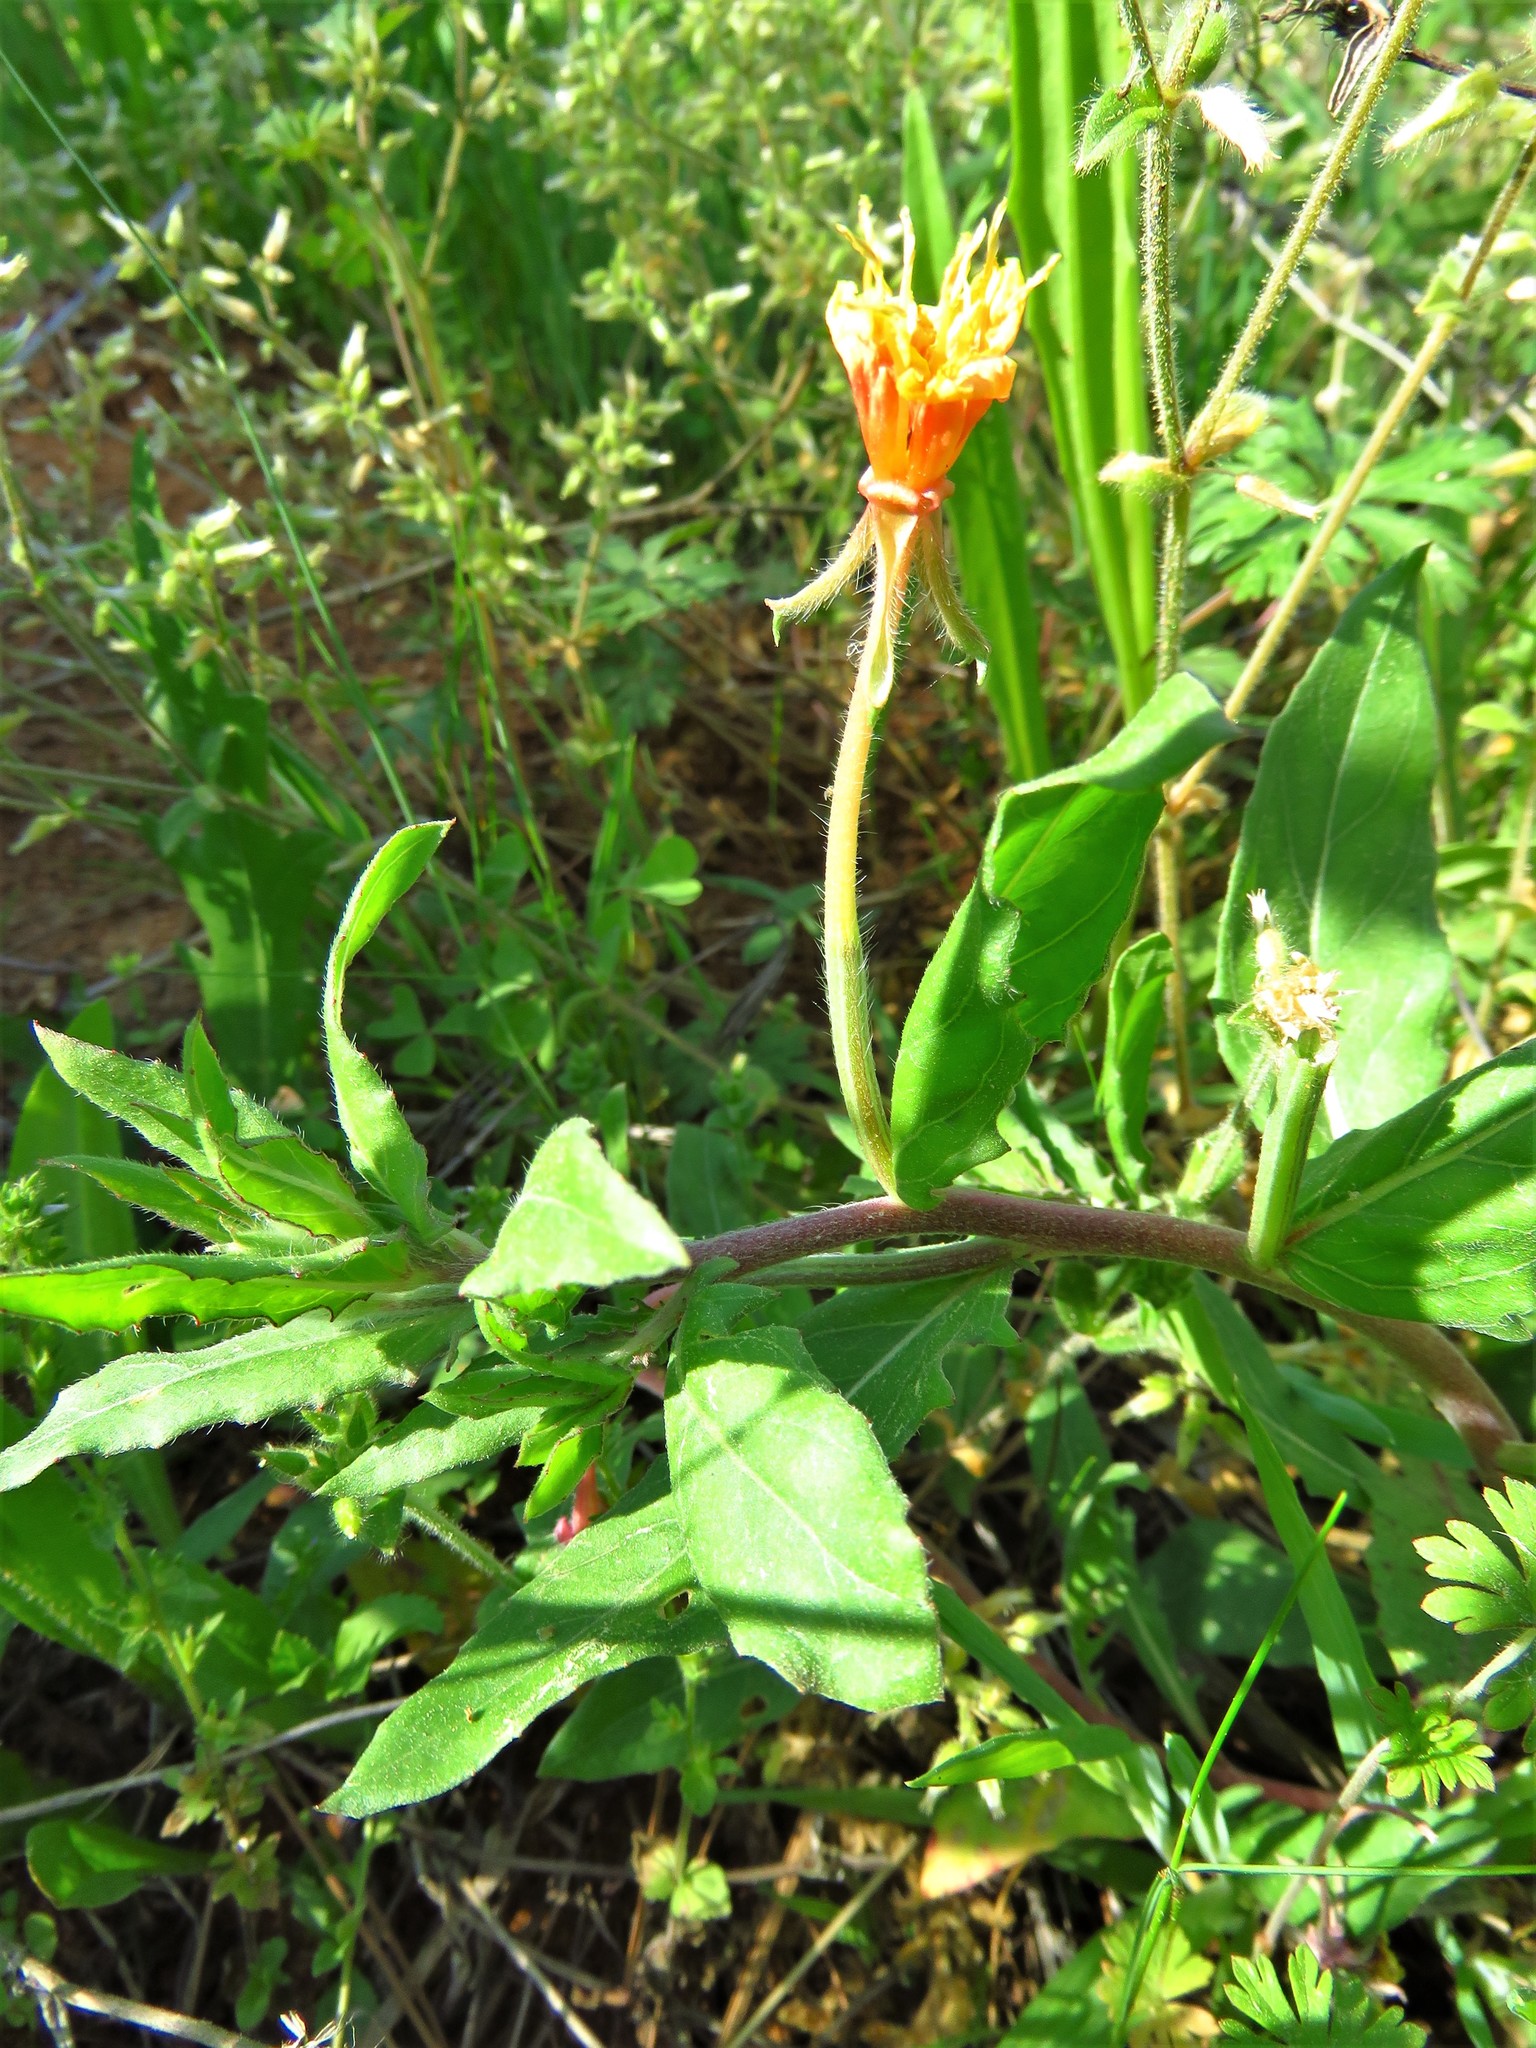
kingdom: Plantae
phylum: Tracheophyta
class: Magnoliopsida
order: Myrtales
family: Onagraceae
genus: Oenothera
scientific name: Oenothera laciniata
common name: Cut-leaved evening-primrose
